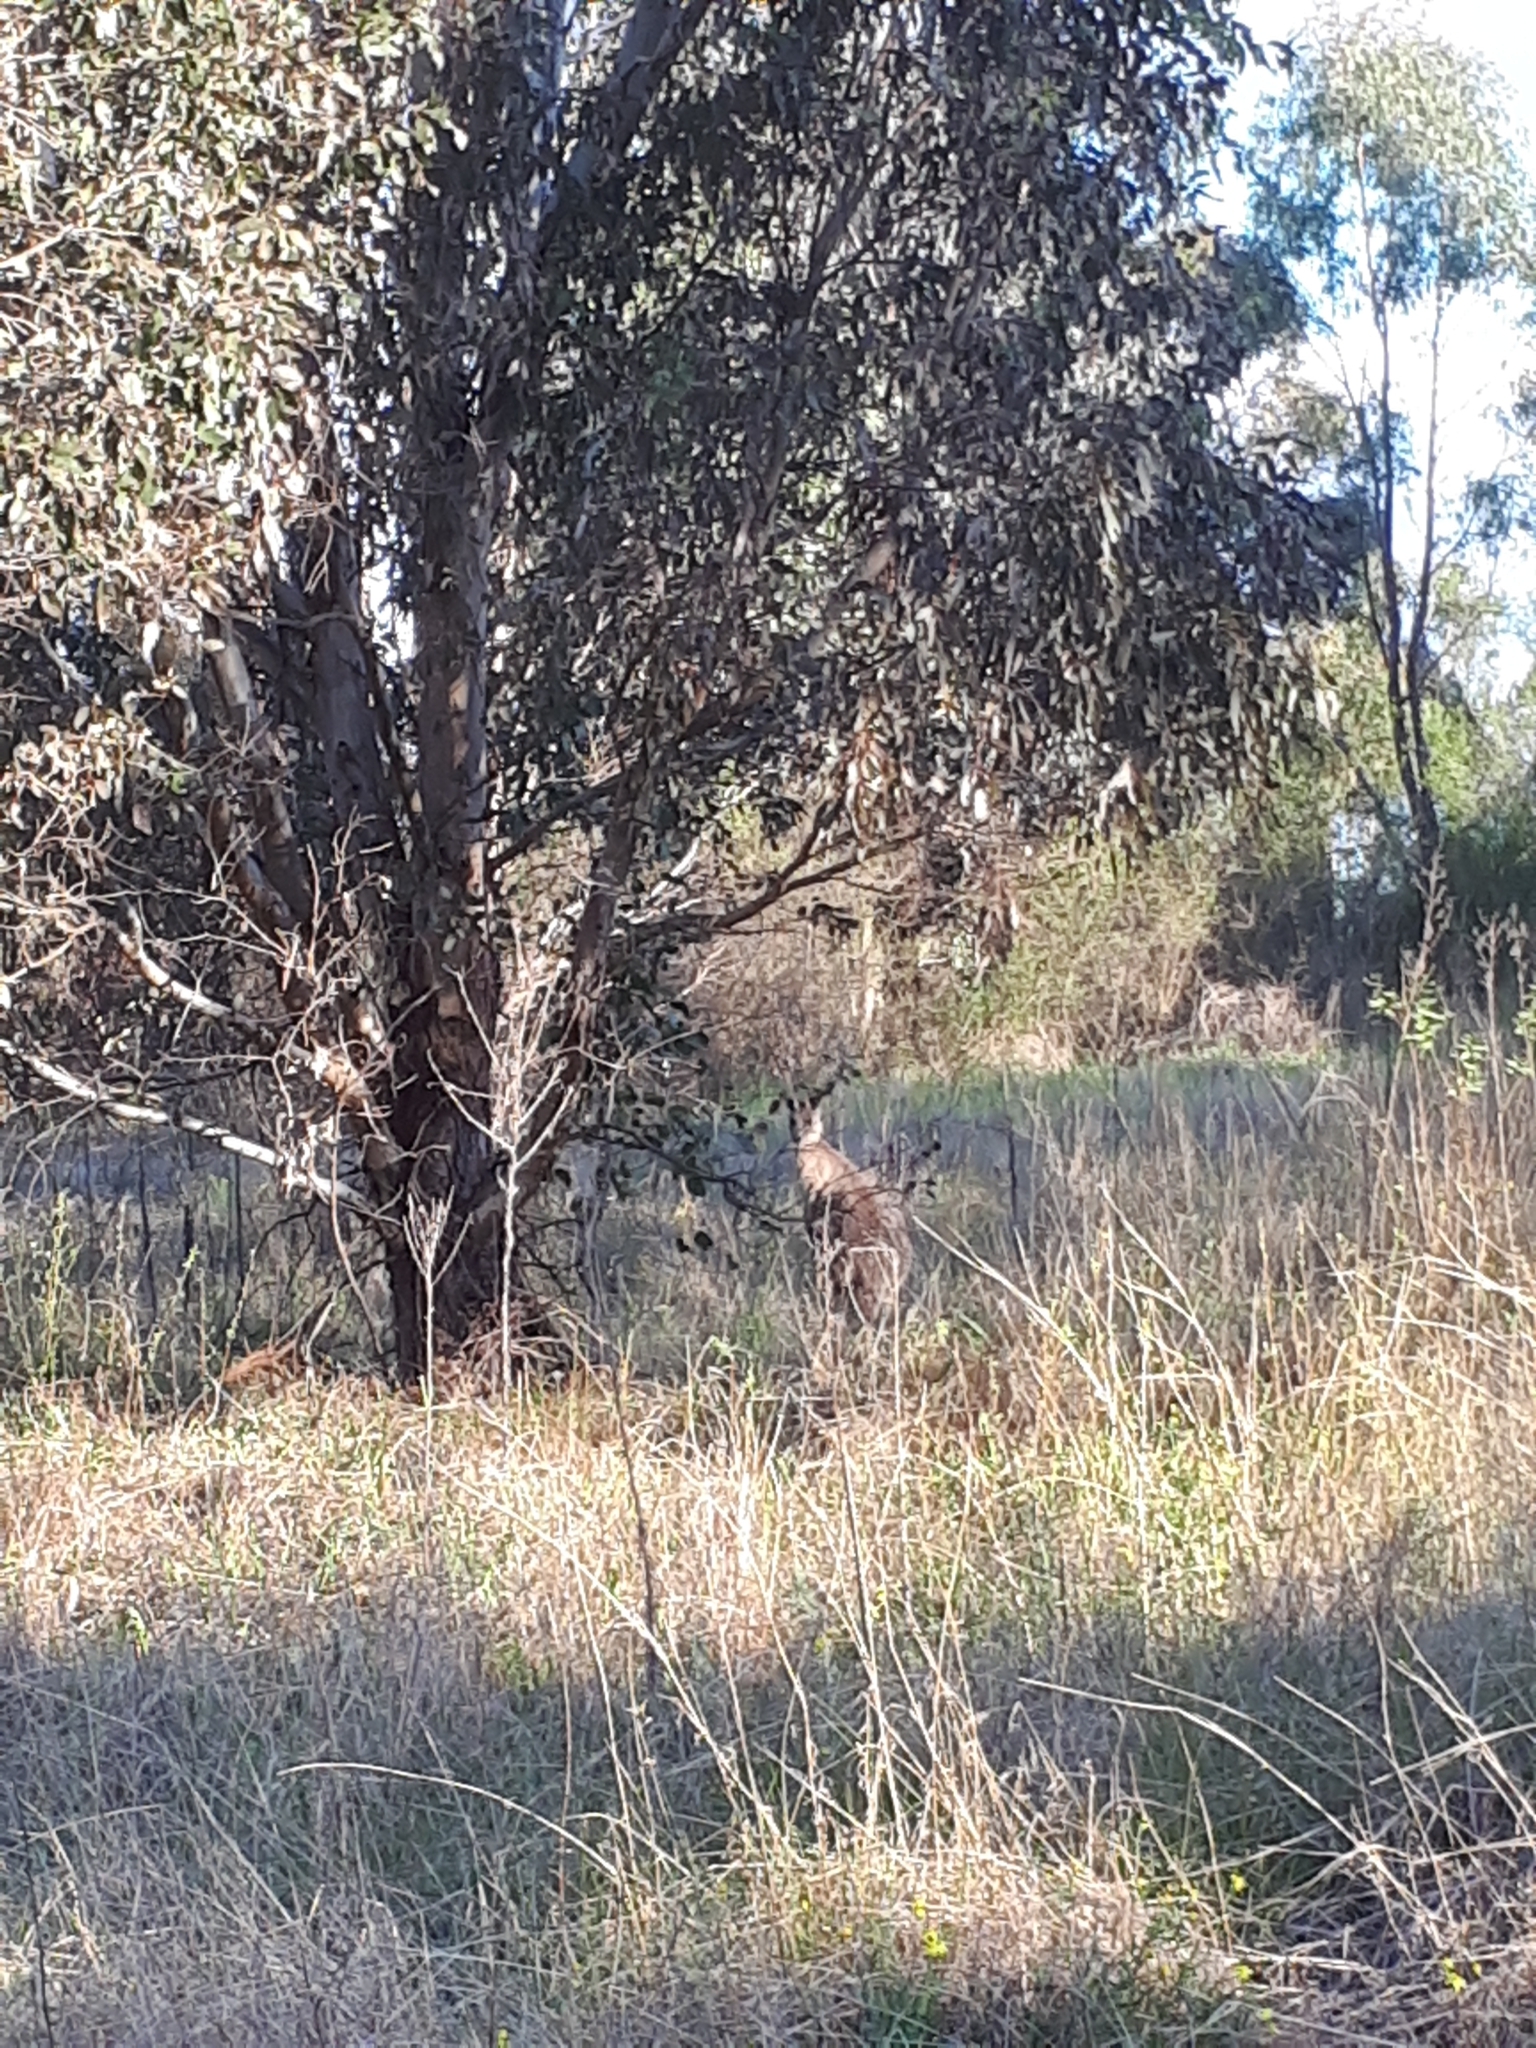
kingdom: Animalia
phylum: Chordata
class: Mammalia
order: Diprotodontia
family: Macropodidae
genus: Macropus
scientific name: Macropus giganteus
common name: Eastern grey kangaroo
